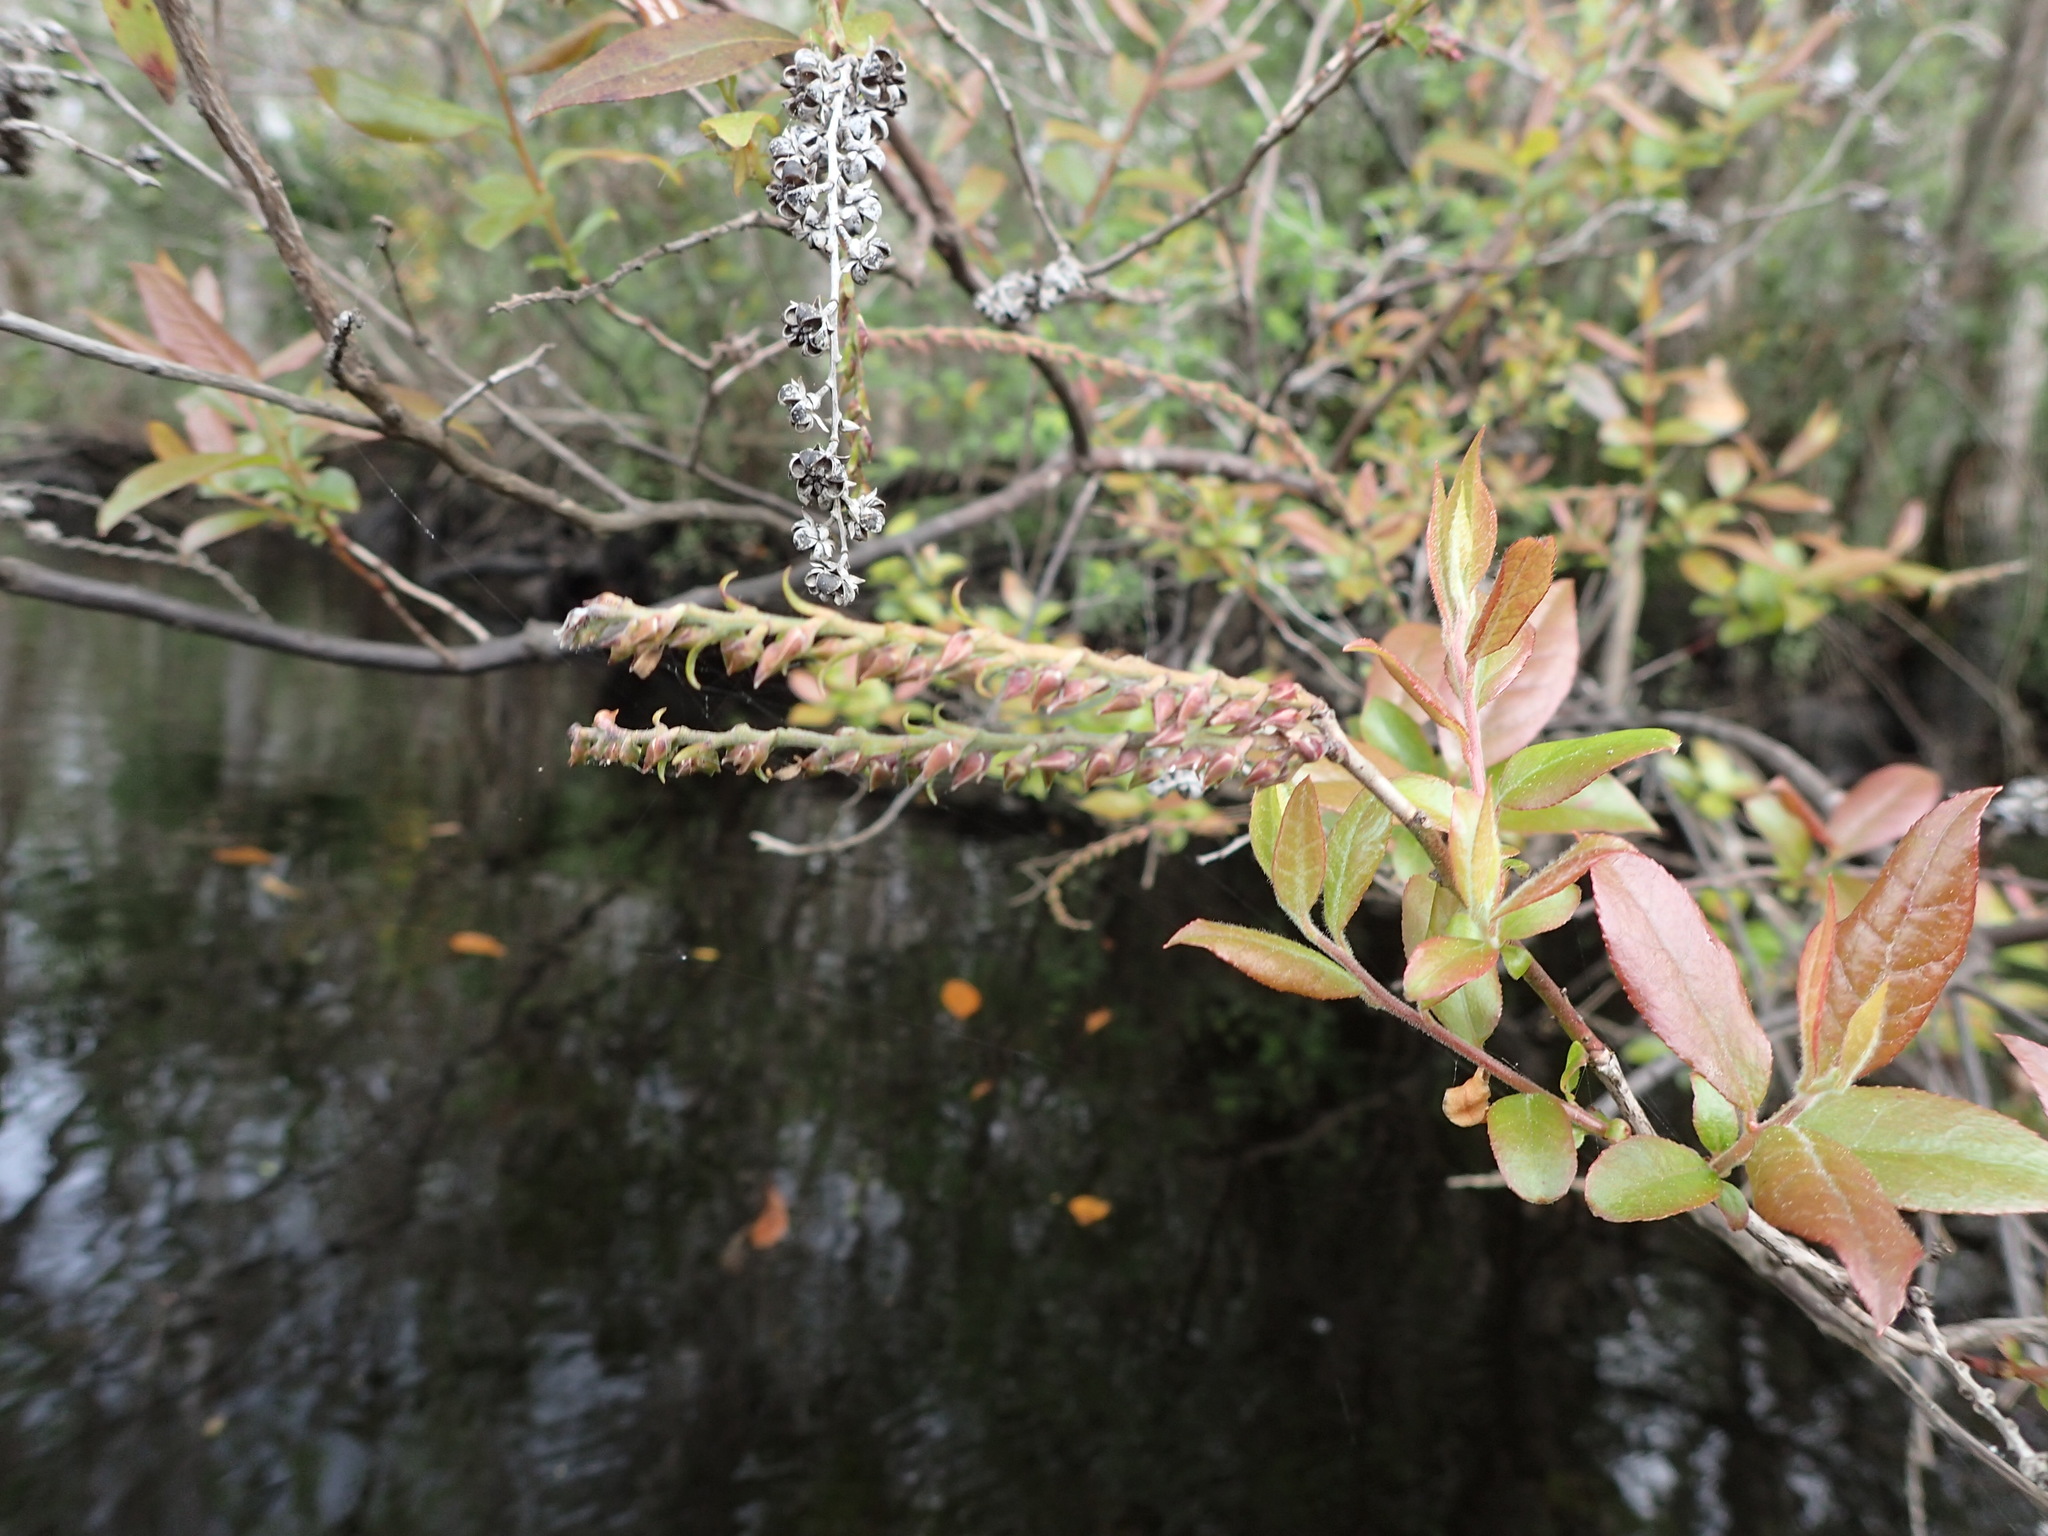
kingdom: Plantae
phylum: Tracheophyta
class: Magnoliopsida
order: Ericales
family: Ericaceae
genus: Eubotrys
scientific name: Eubotrys racemosa
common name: Fetterbush
